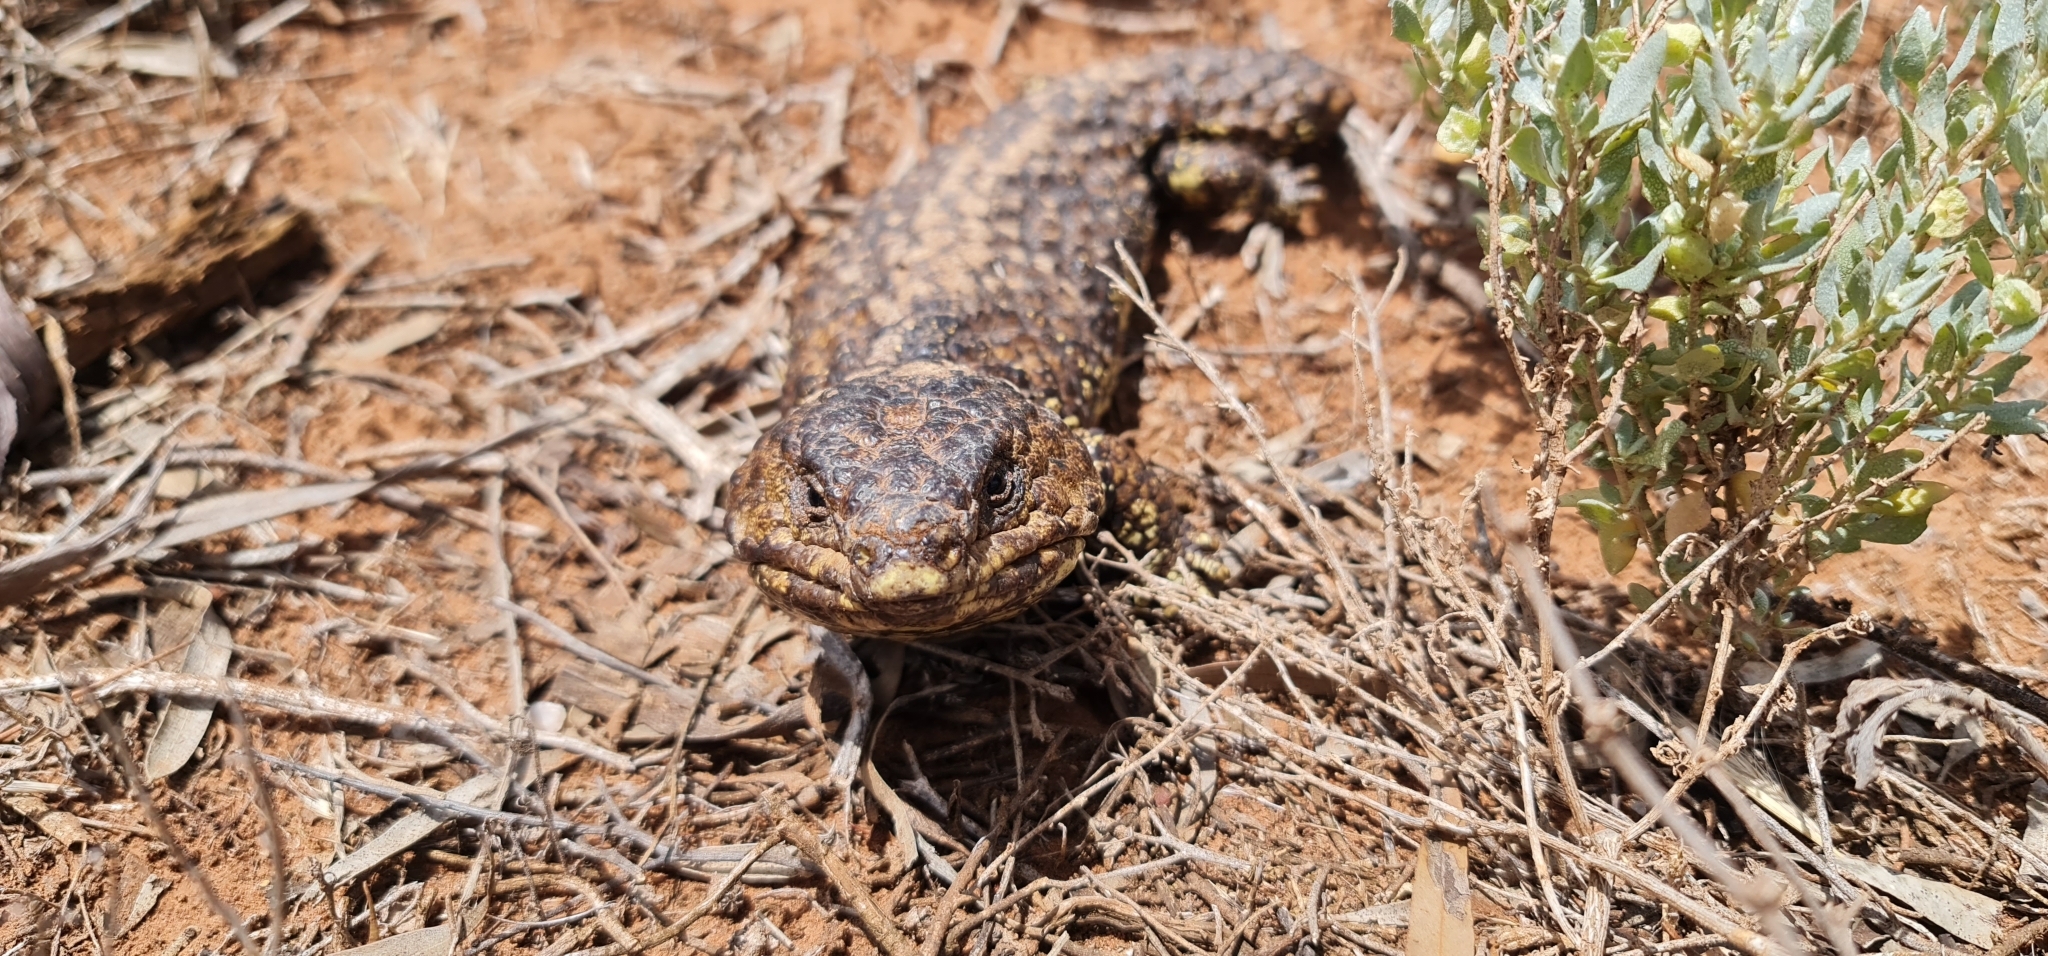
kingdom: Animalia
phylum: Chordata
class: Squamata
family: Scincidae
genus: Tiliqua
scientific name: Tiliqua rugosa
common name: Pinecone lizard
